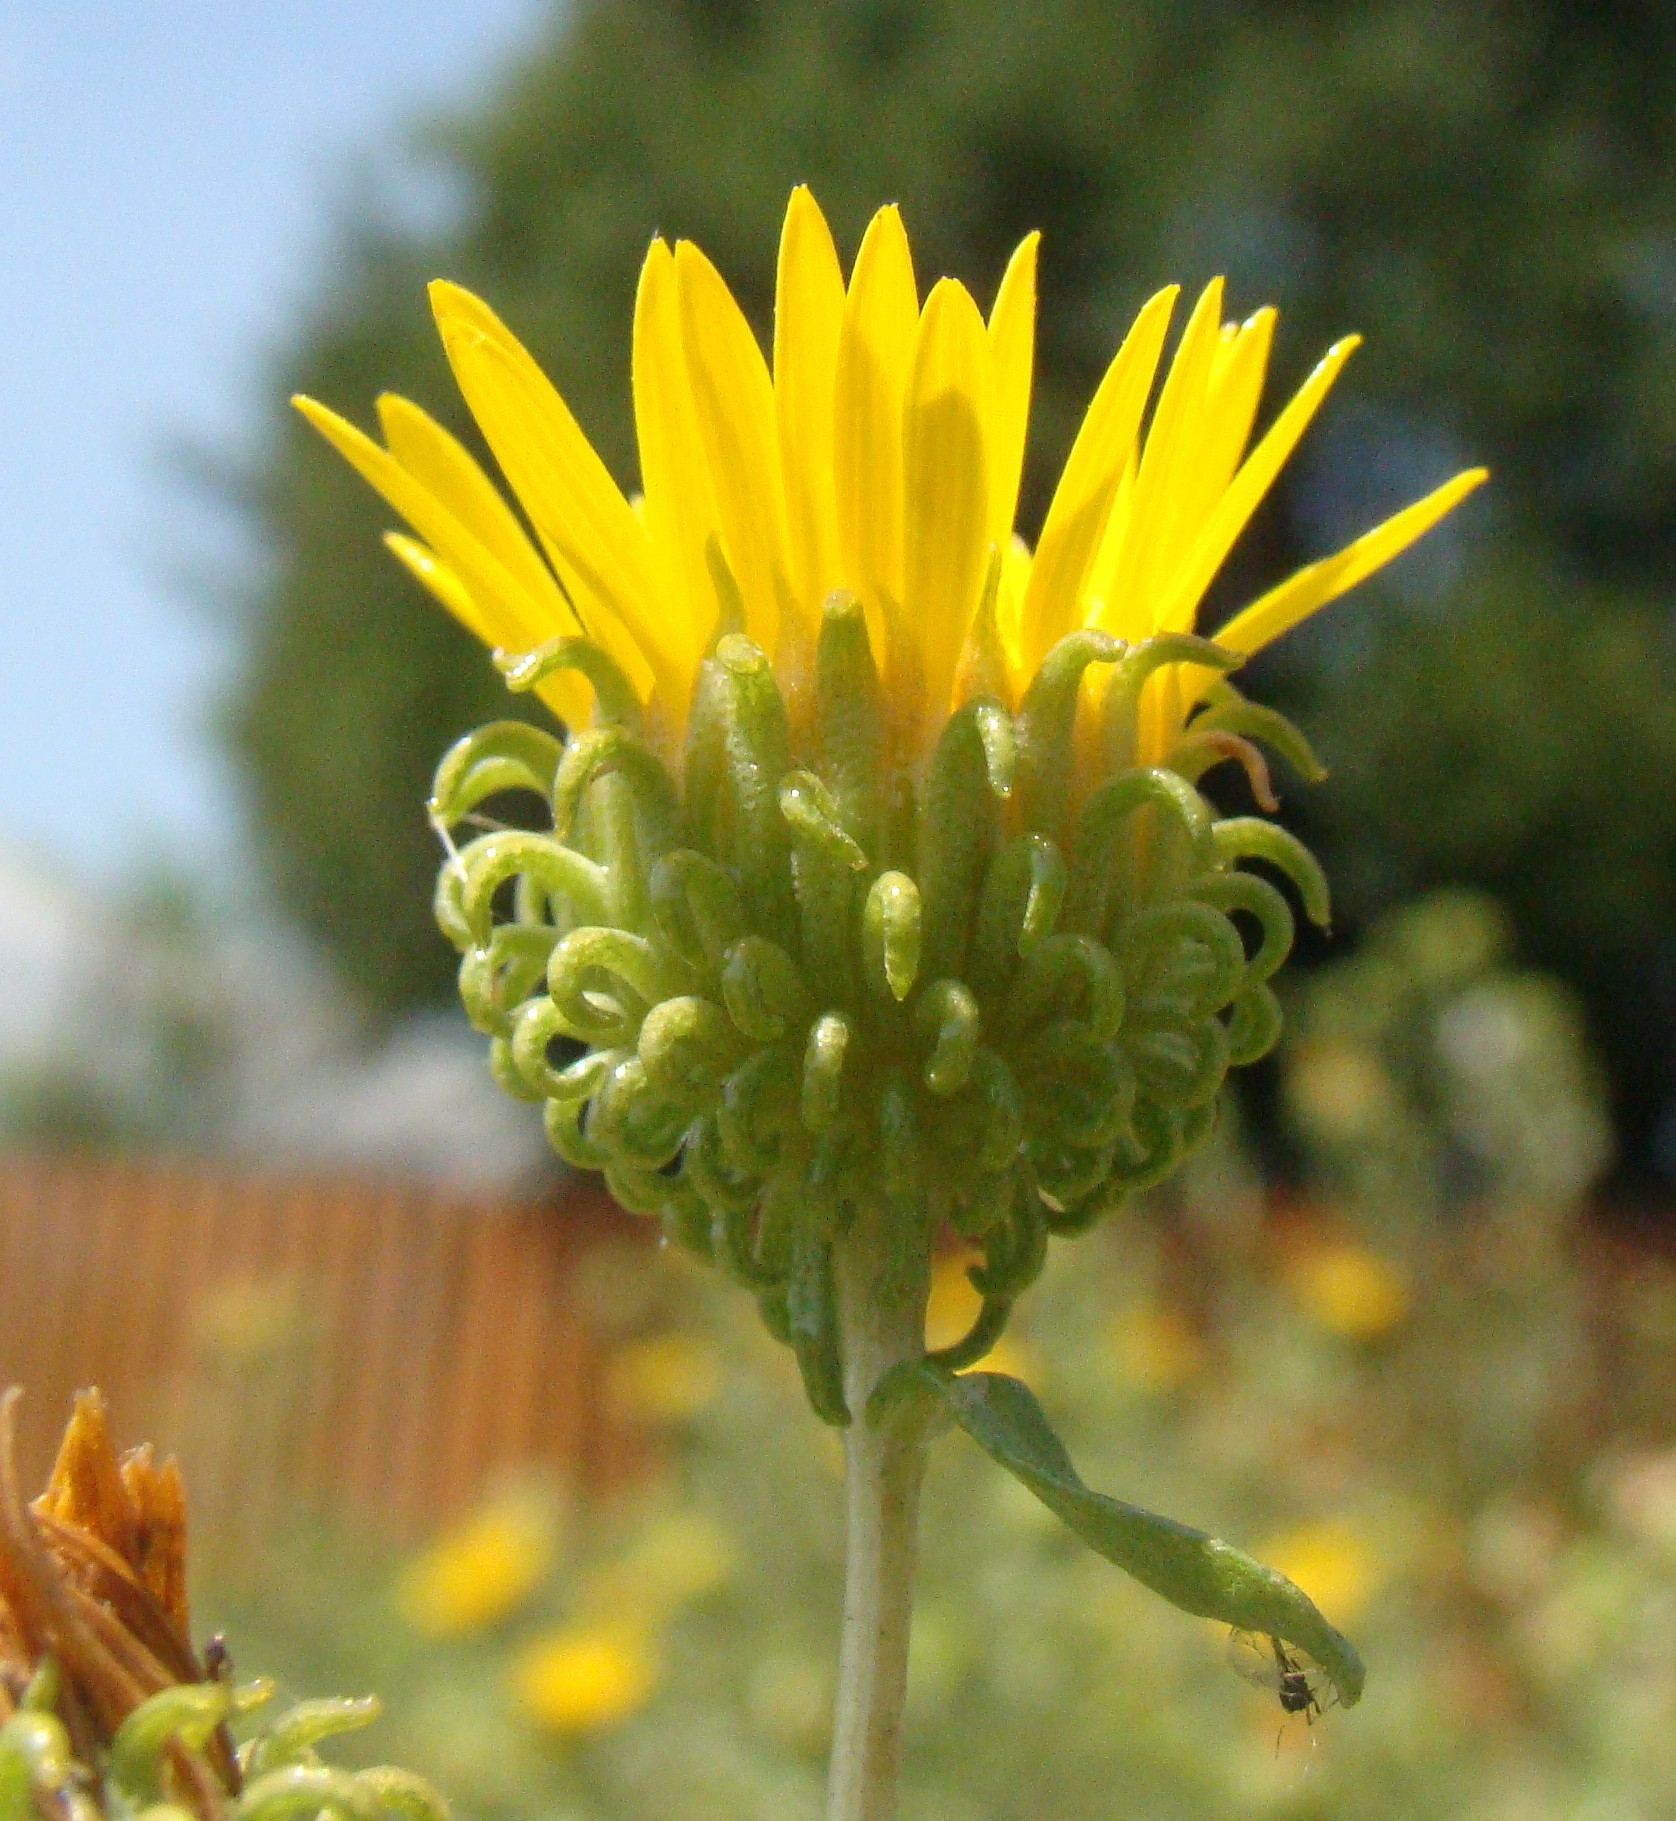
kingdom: Plantae
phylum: Tracheophyta
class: Magnoliopsida
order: Asterales
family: Asteraceae
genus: Grindelia
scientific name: Grindelia squarrosa
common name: Curly-cup gumweed
